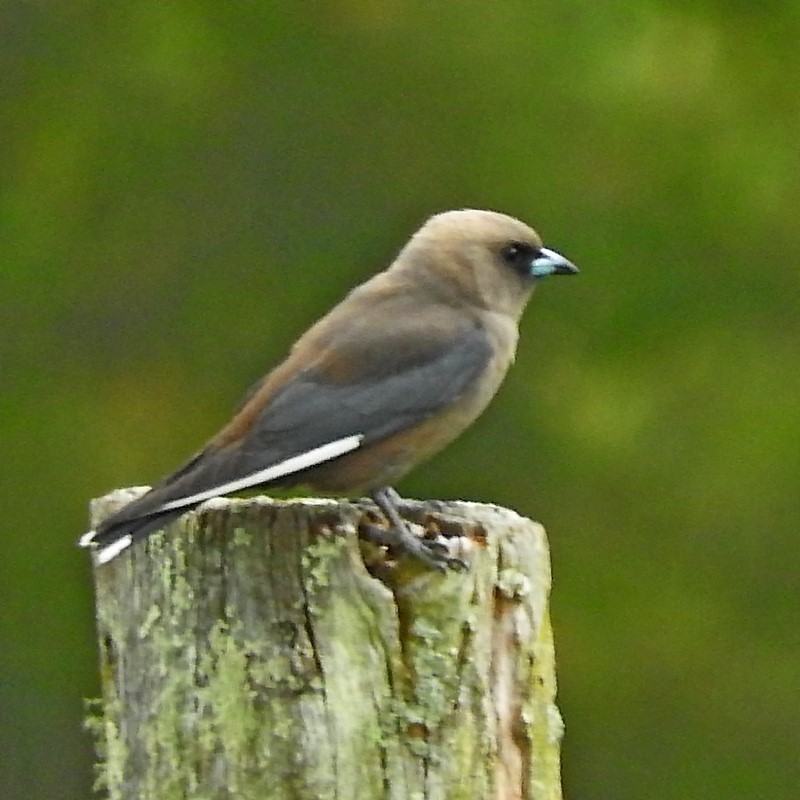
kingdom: Animalia
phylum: Chordata
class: Aves
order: Passeriformes
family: Artamidae
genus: Artamus
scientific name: Artamus cyanopterus
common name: Dusky woodswallow
